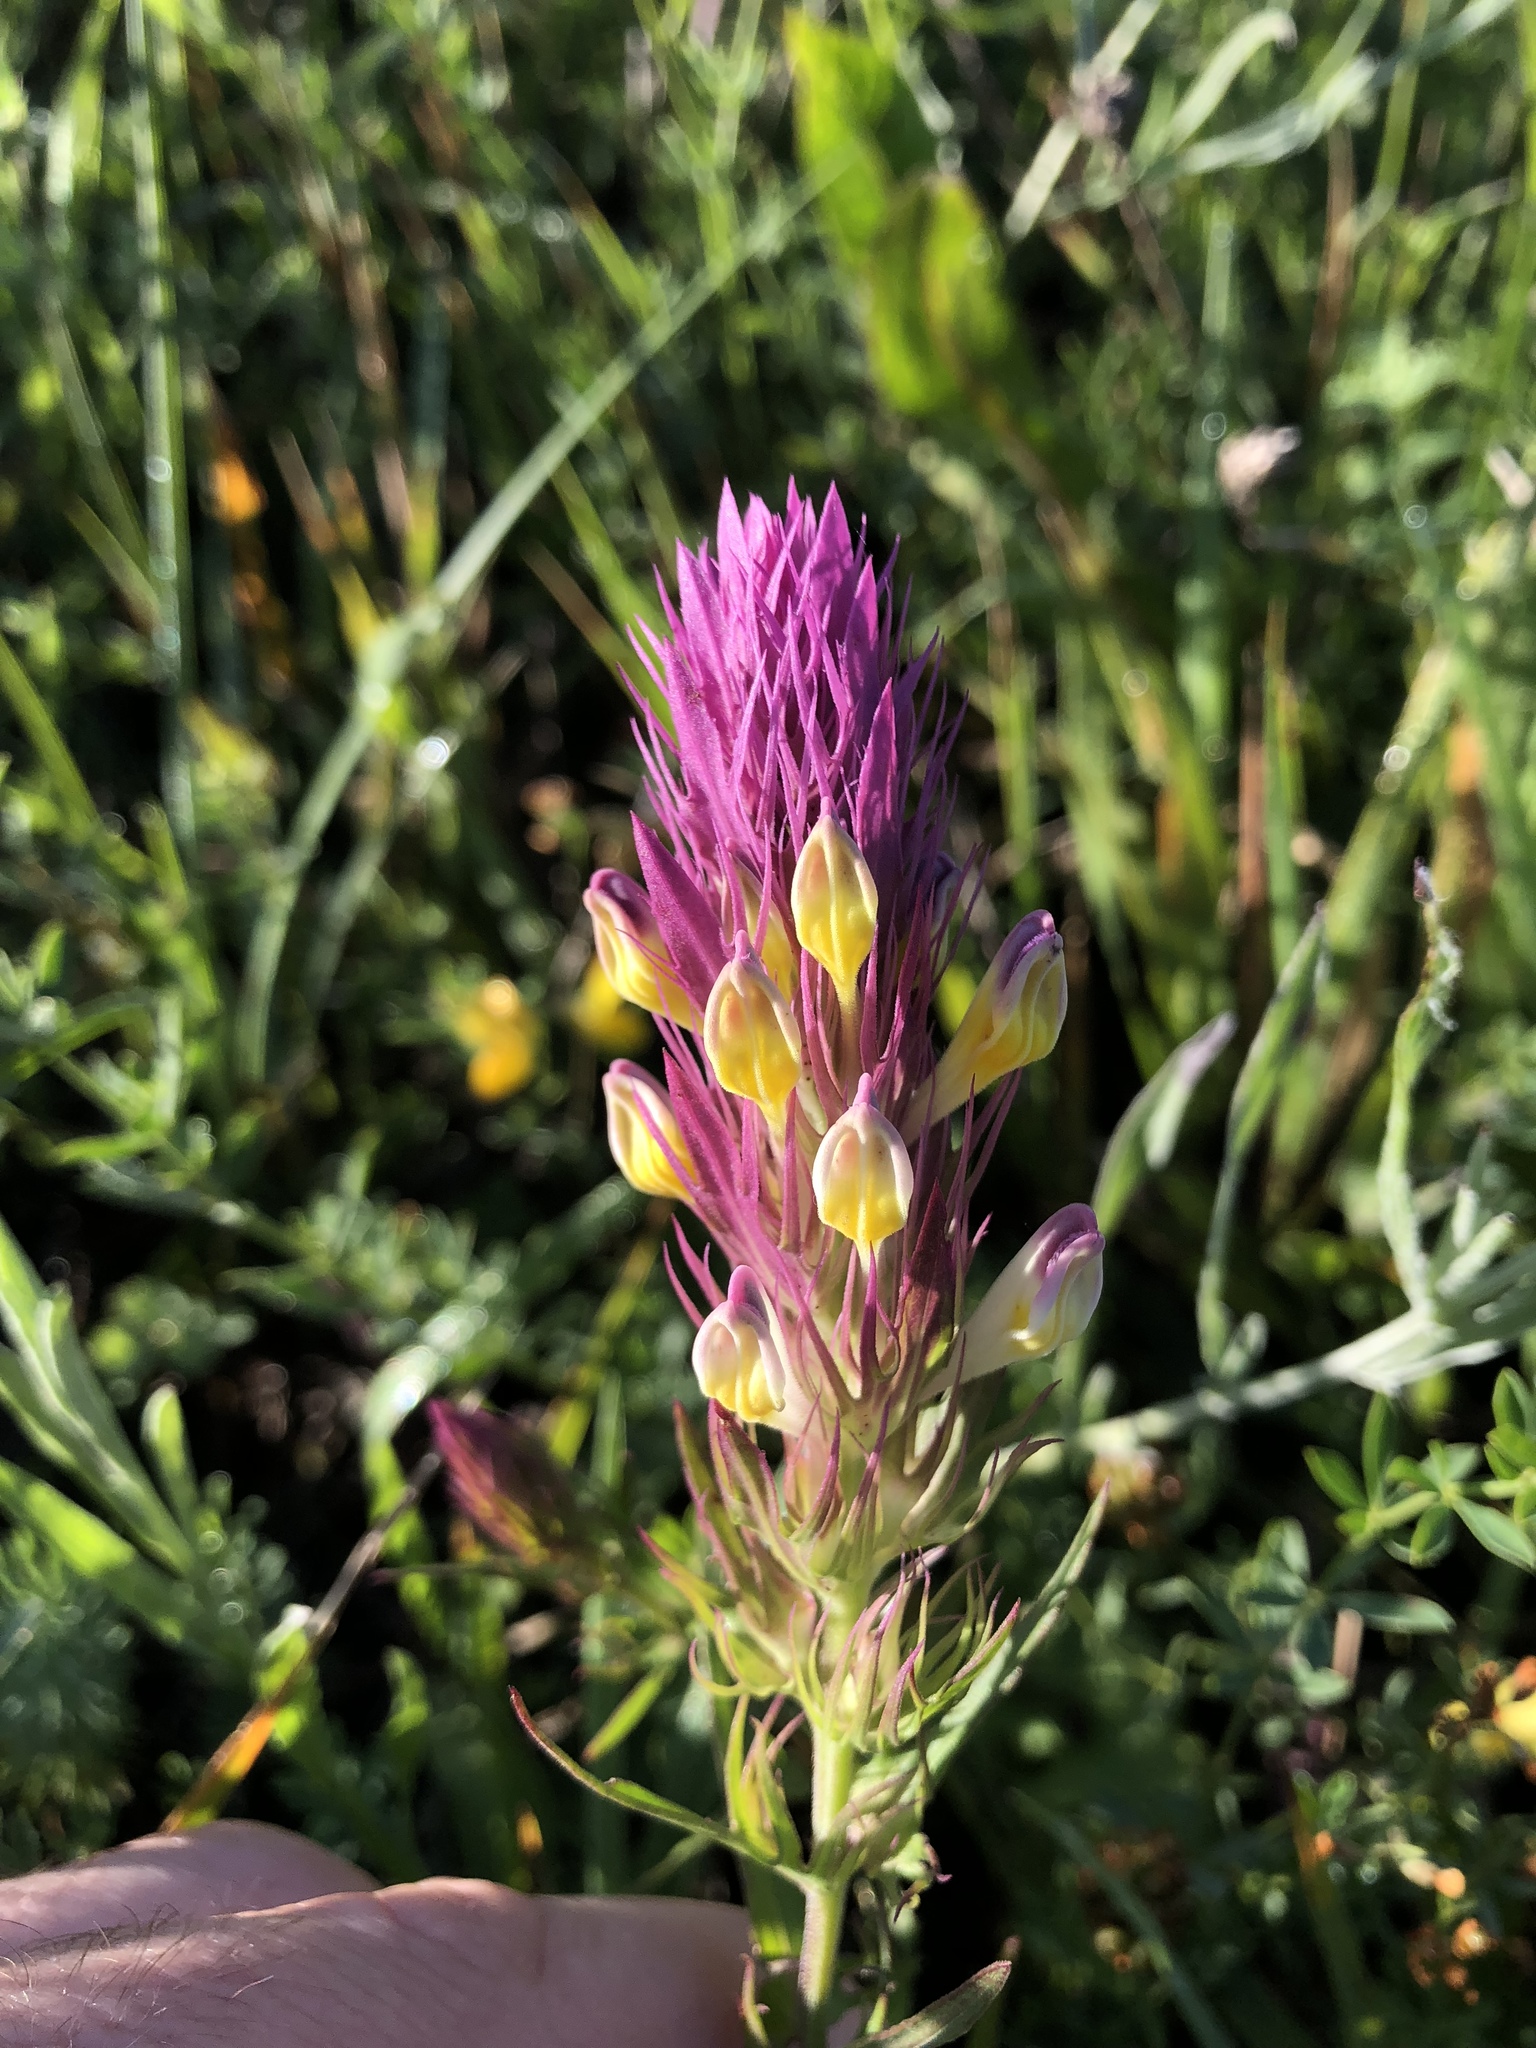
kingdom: Plantae
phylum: Tracheophyta
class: Magnoliopsida
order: Lamiales
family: Orobanchaceae
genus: Melampyrum
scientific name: Melampyrum arvense
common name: Field cow-wheat
